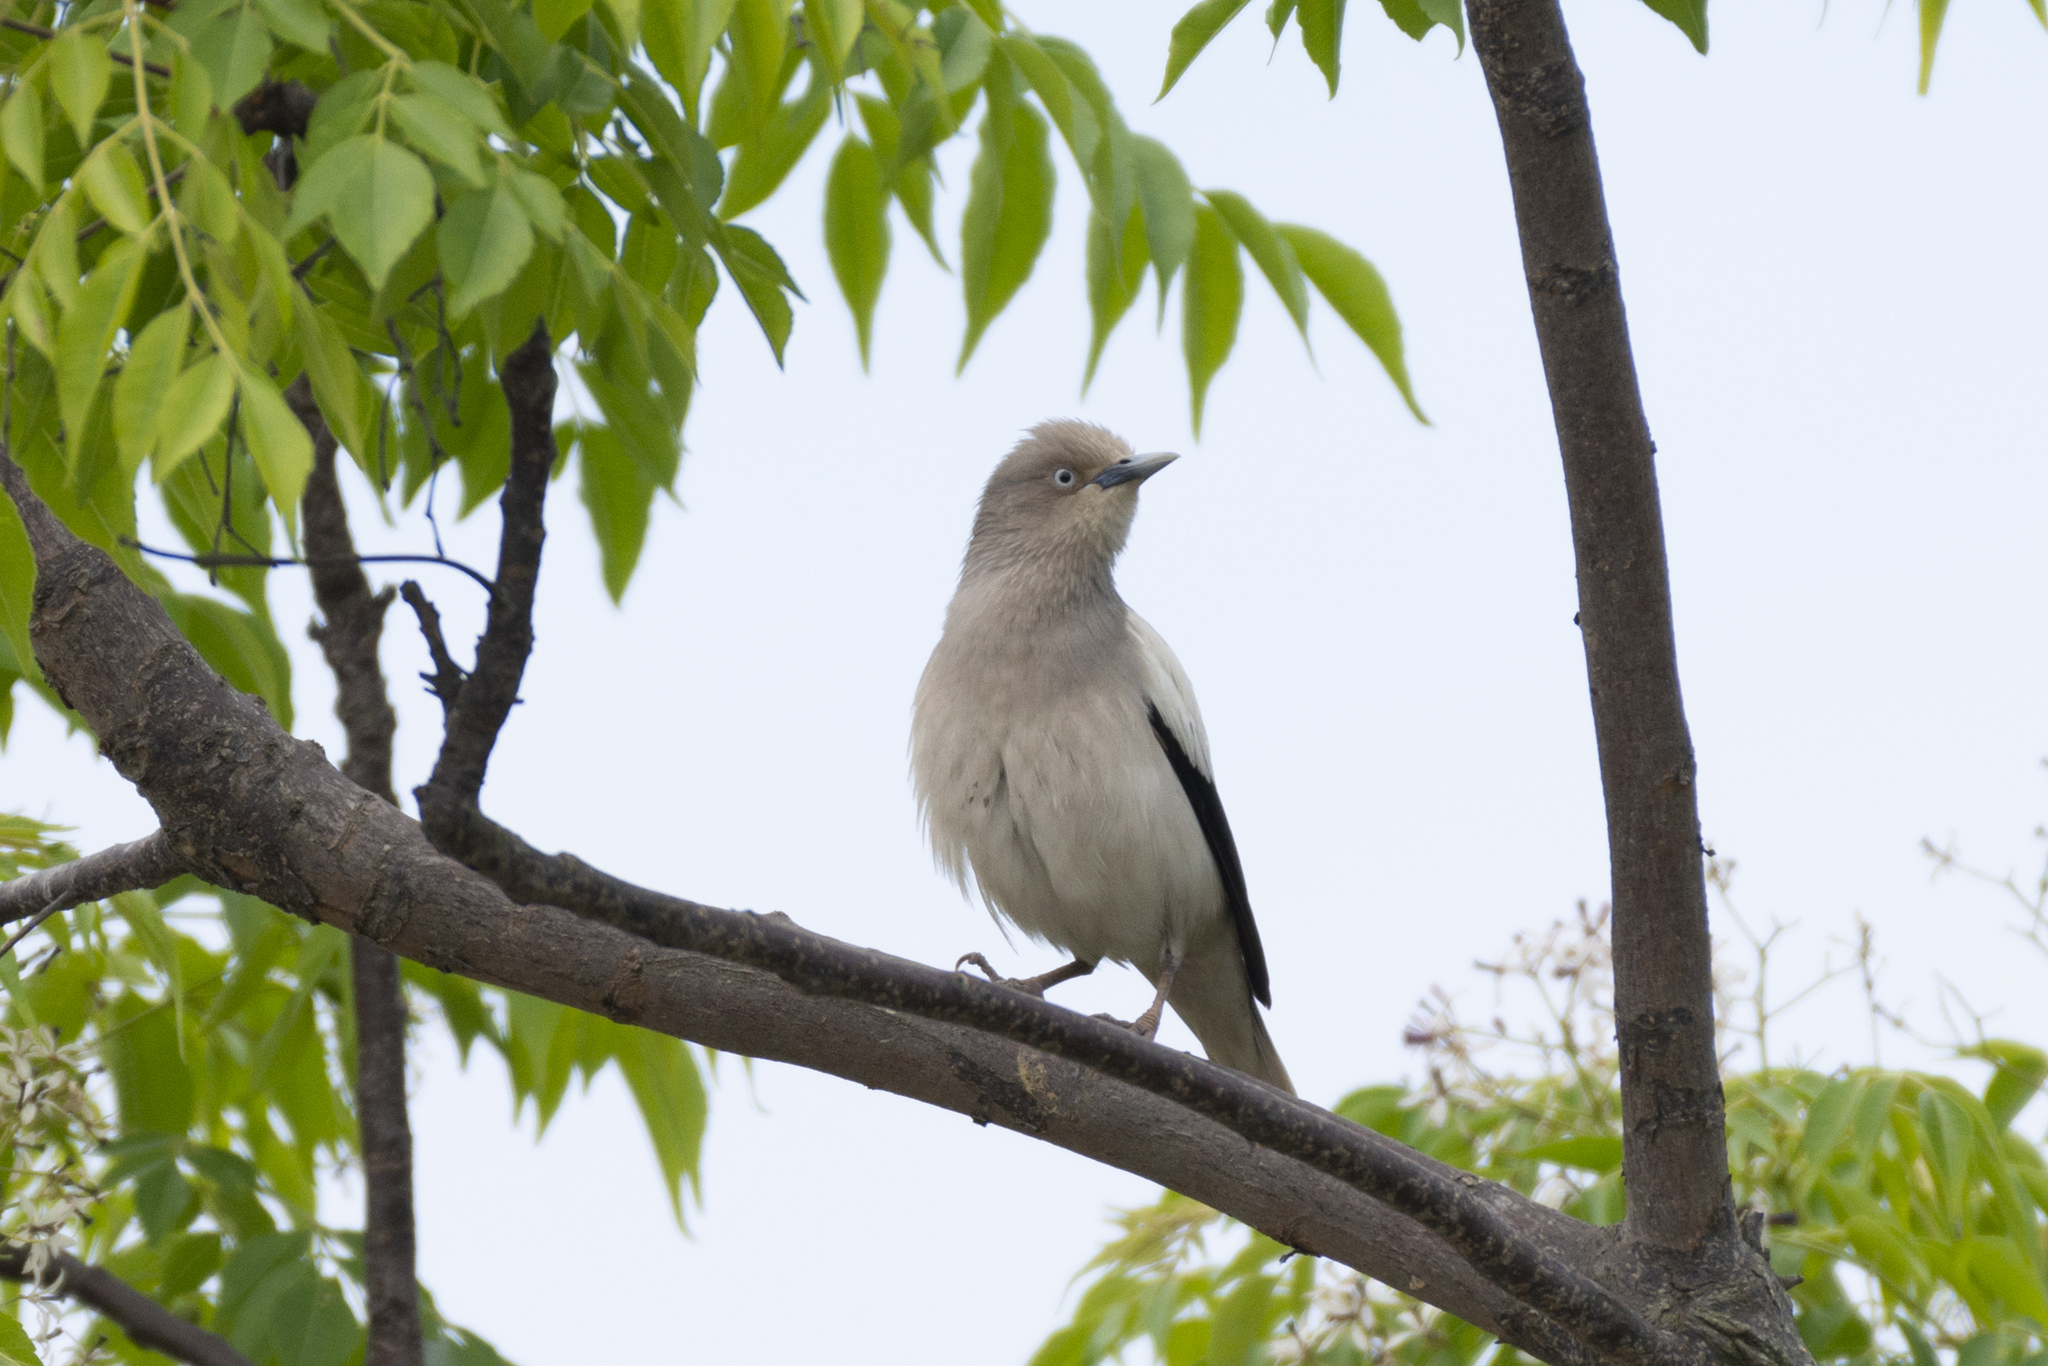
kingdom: Animalia
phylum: Chordata
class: Aves
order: Passeriformes
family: Sturnidae
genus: Sturnia
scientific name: Sturnia sinensis
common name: White-shouldered starling
